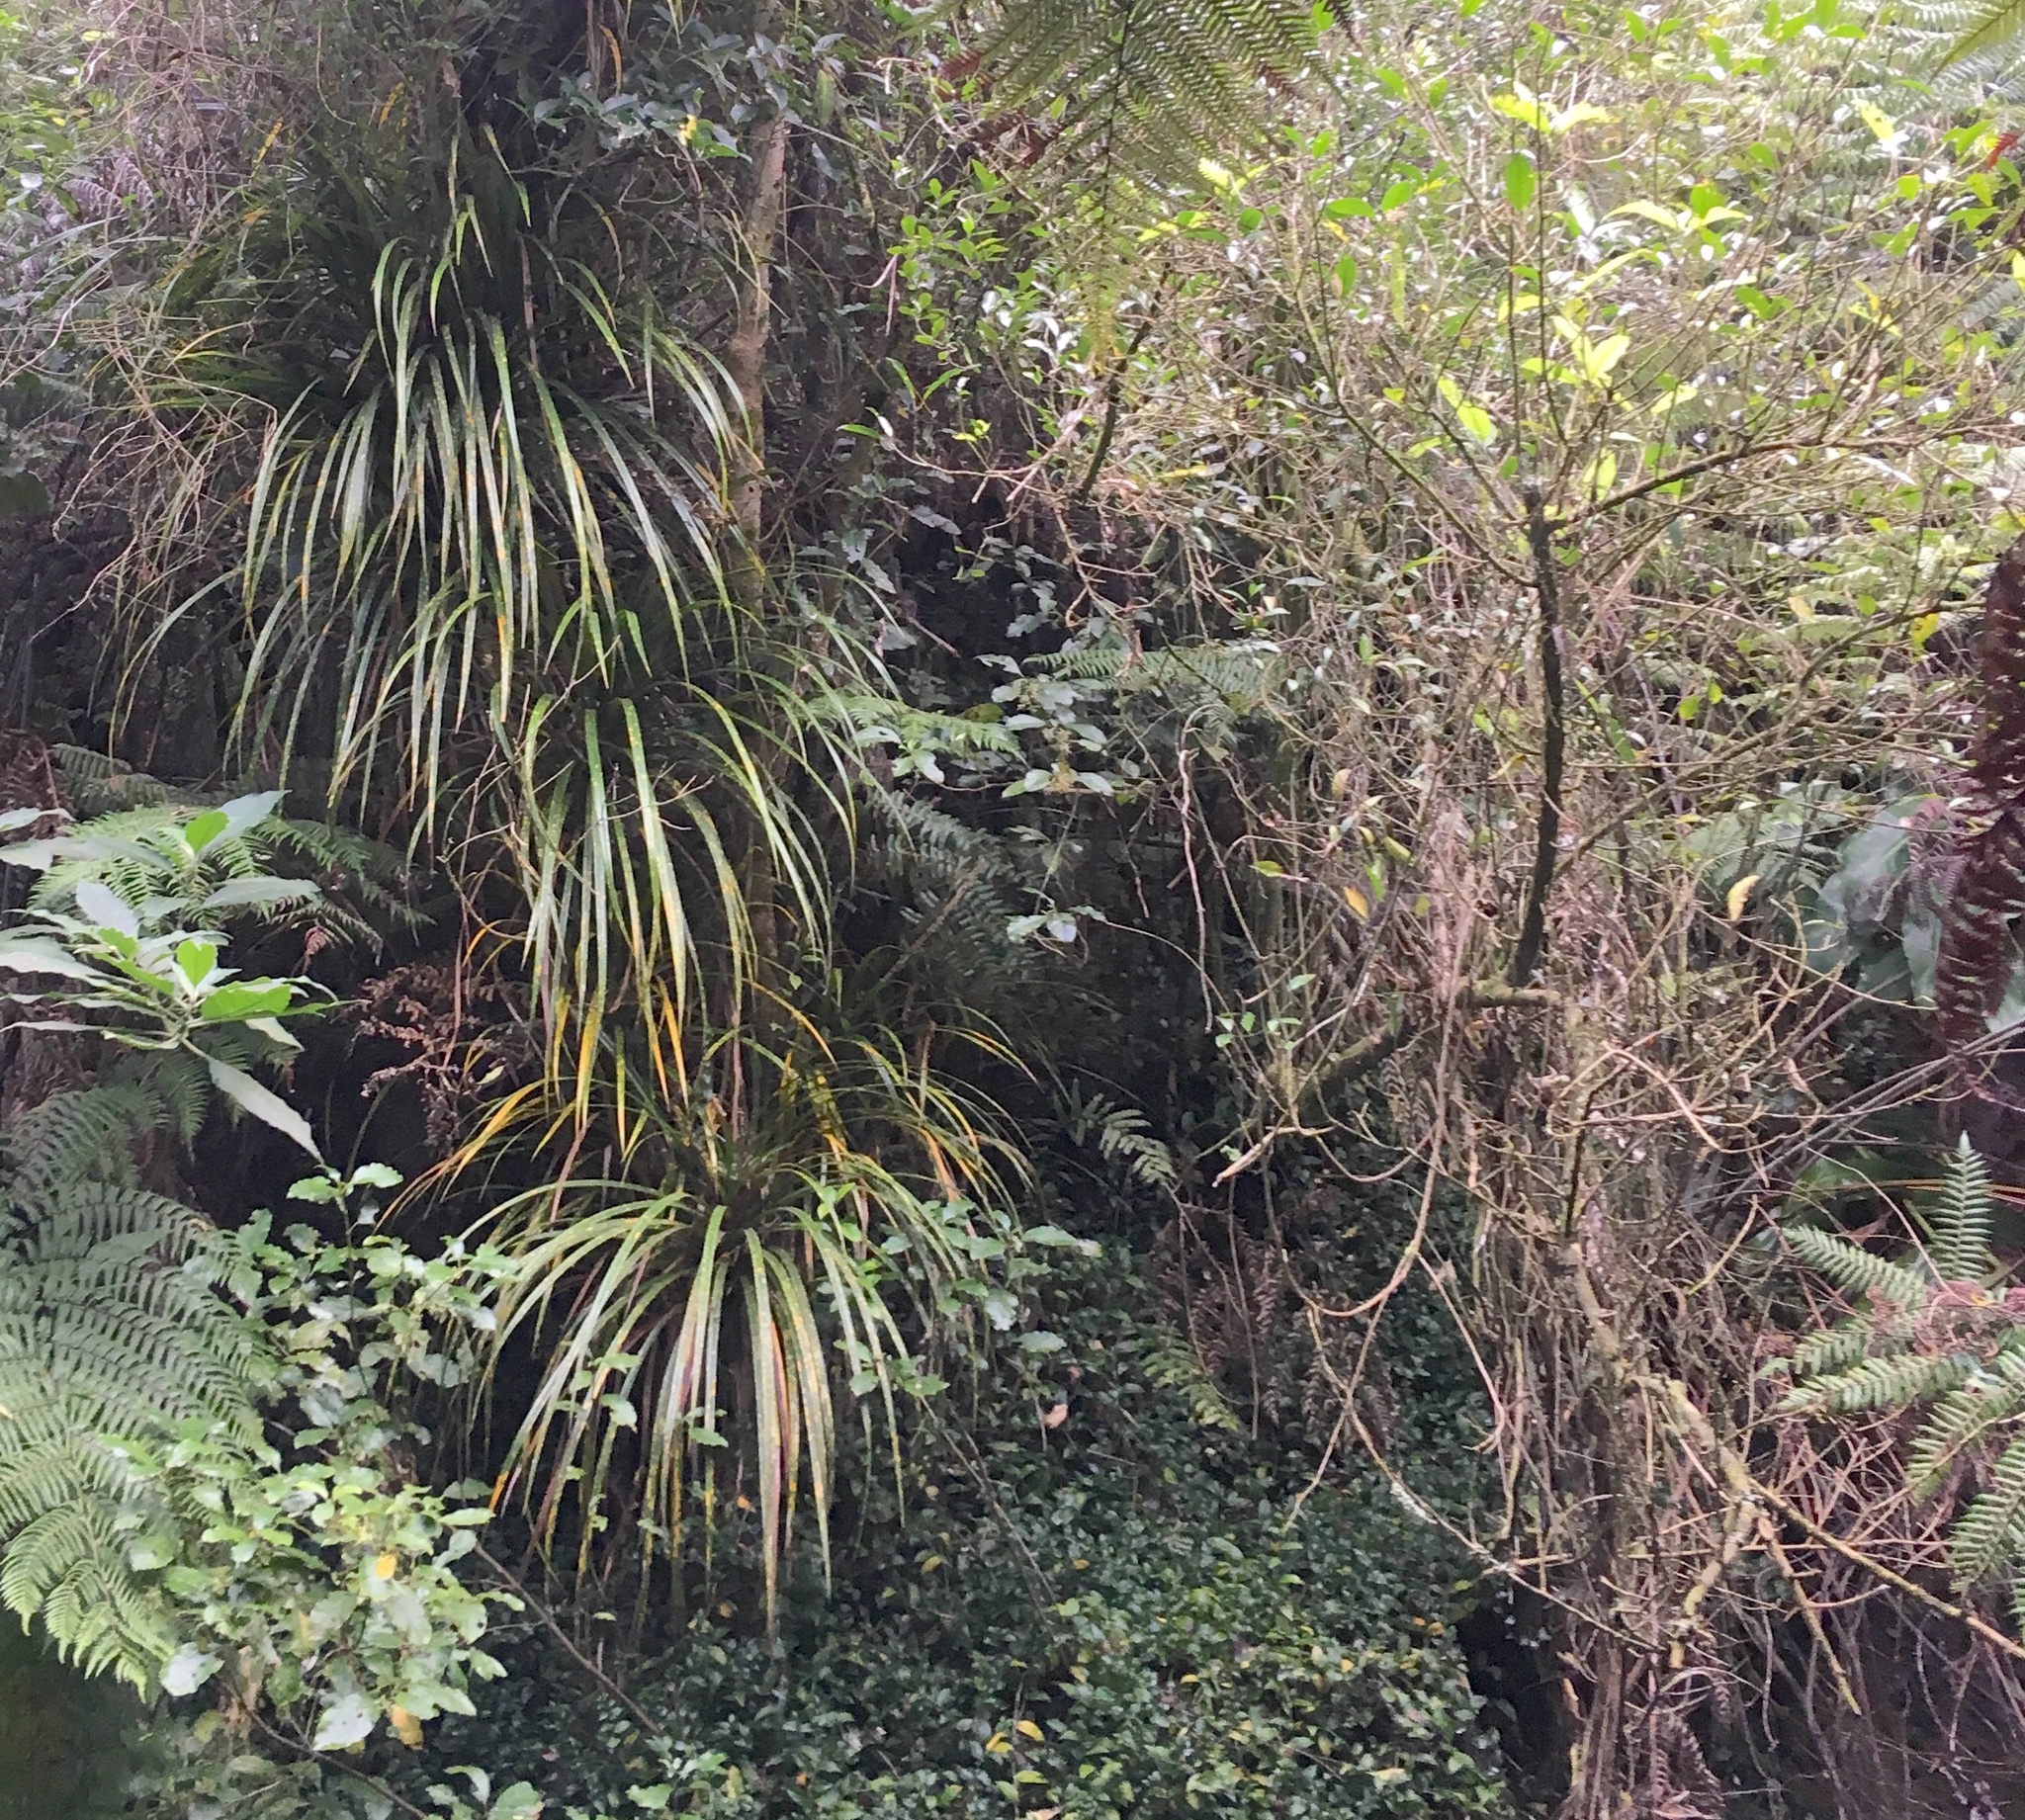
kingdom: Plantae
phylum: Tracheophyta
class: Liliopsida
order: Pandanales
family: Pandanaceae
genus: Freycinetia
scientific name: Freycinetia banksii
